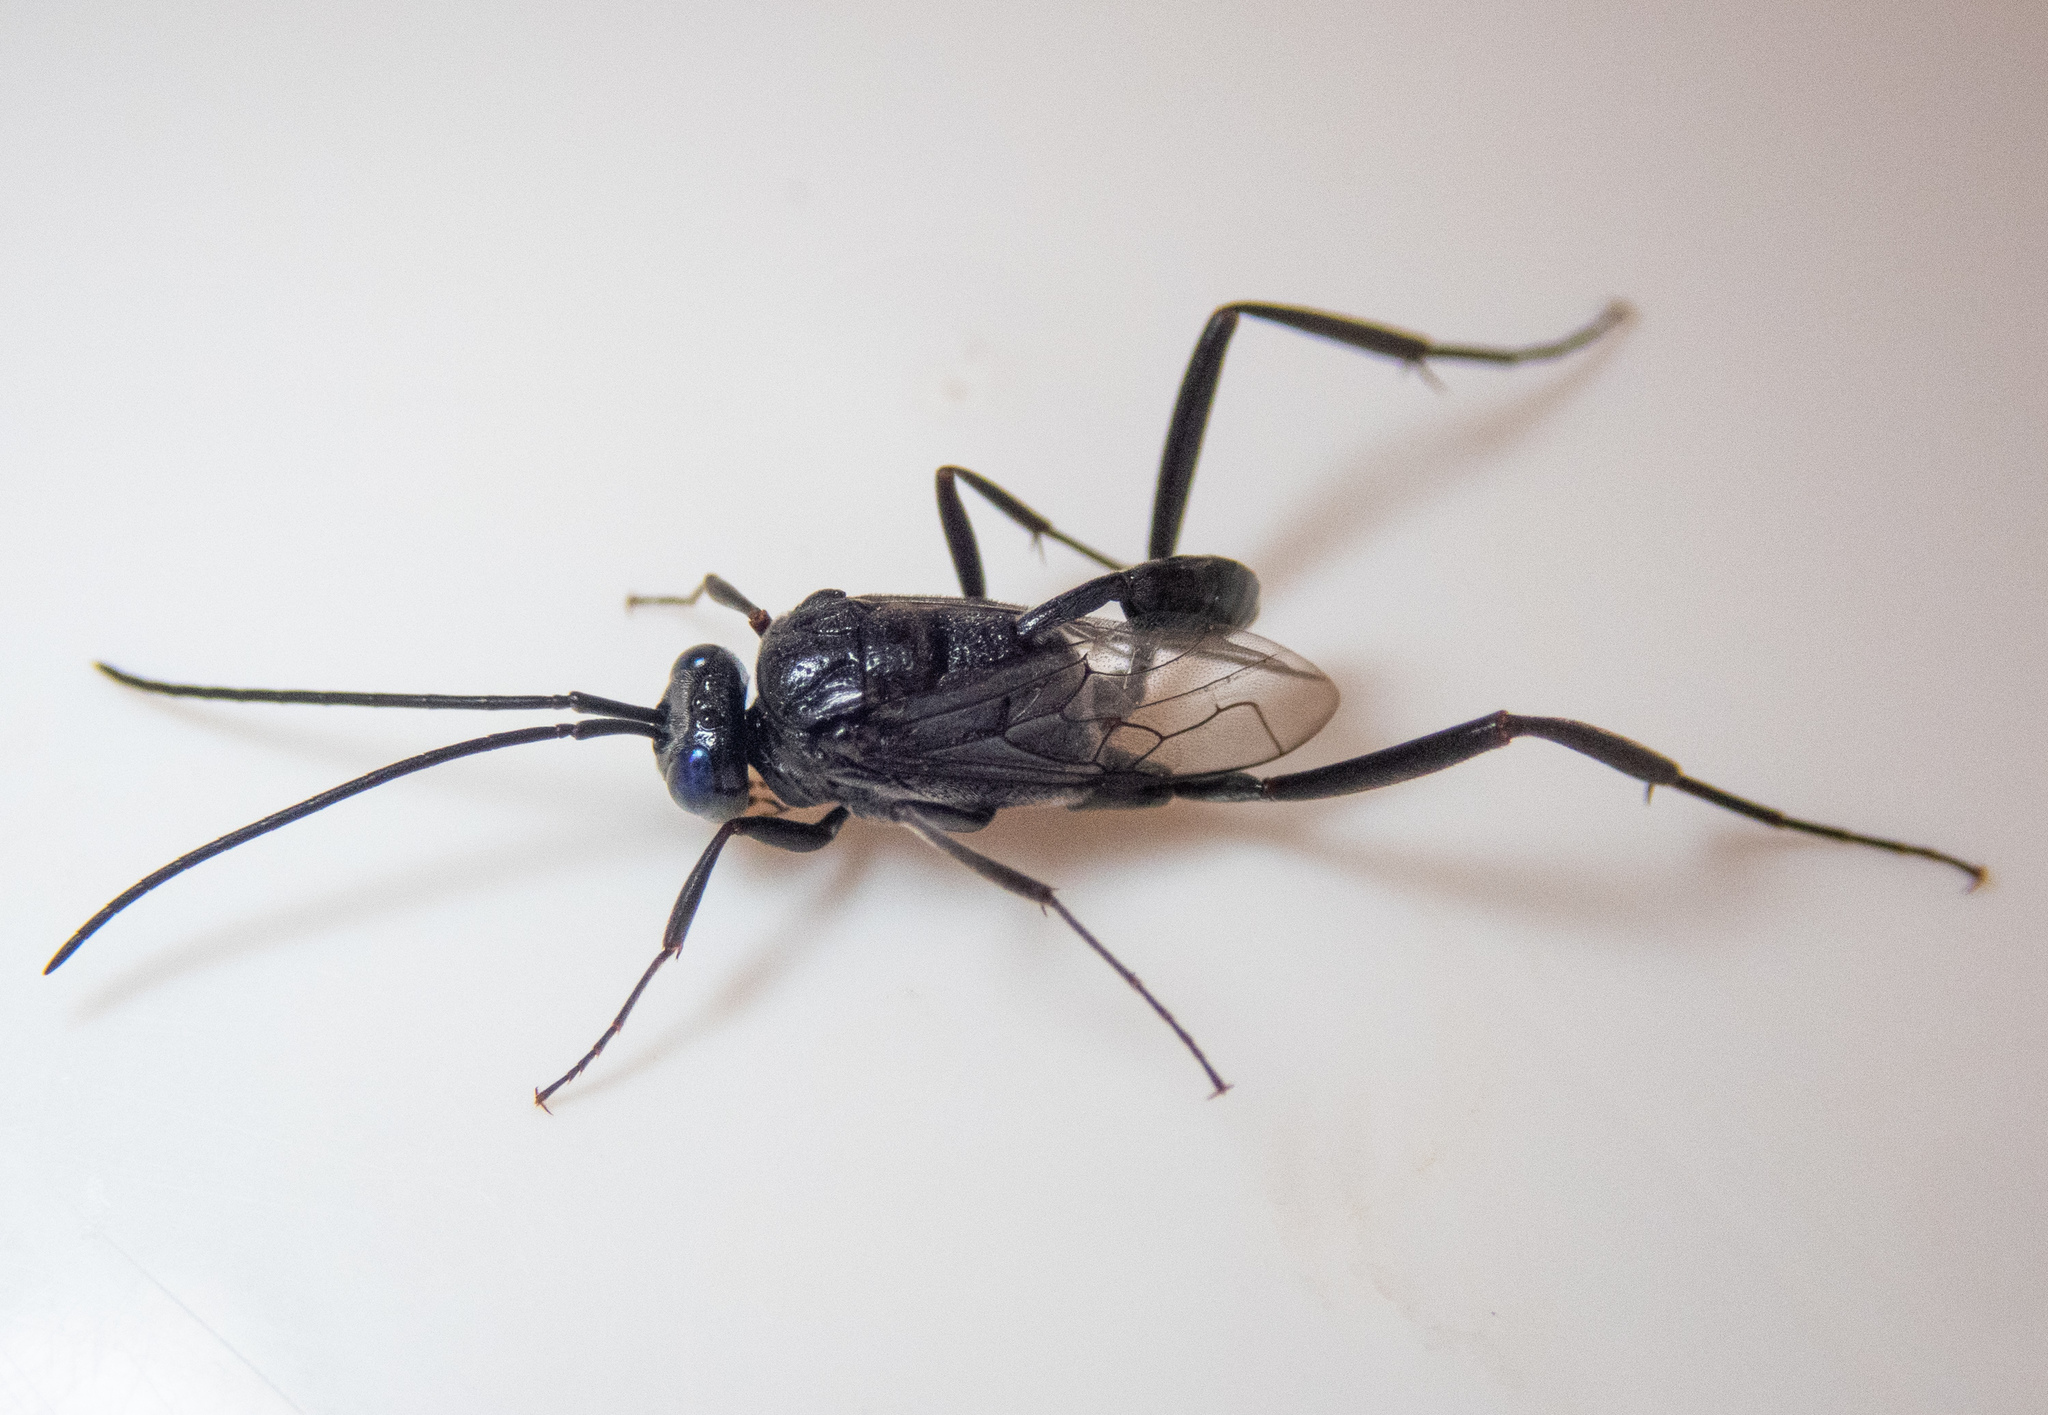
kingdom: Animalia
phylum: Arthropoda
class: Insecta
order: Hymenoptera
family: Evaniidae
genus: Evania
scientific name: Evania appendigaster
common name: Ensign wasp
